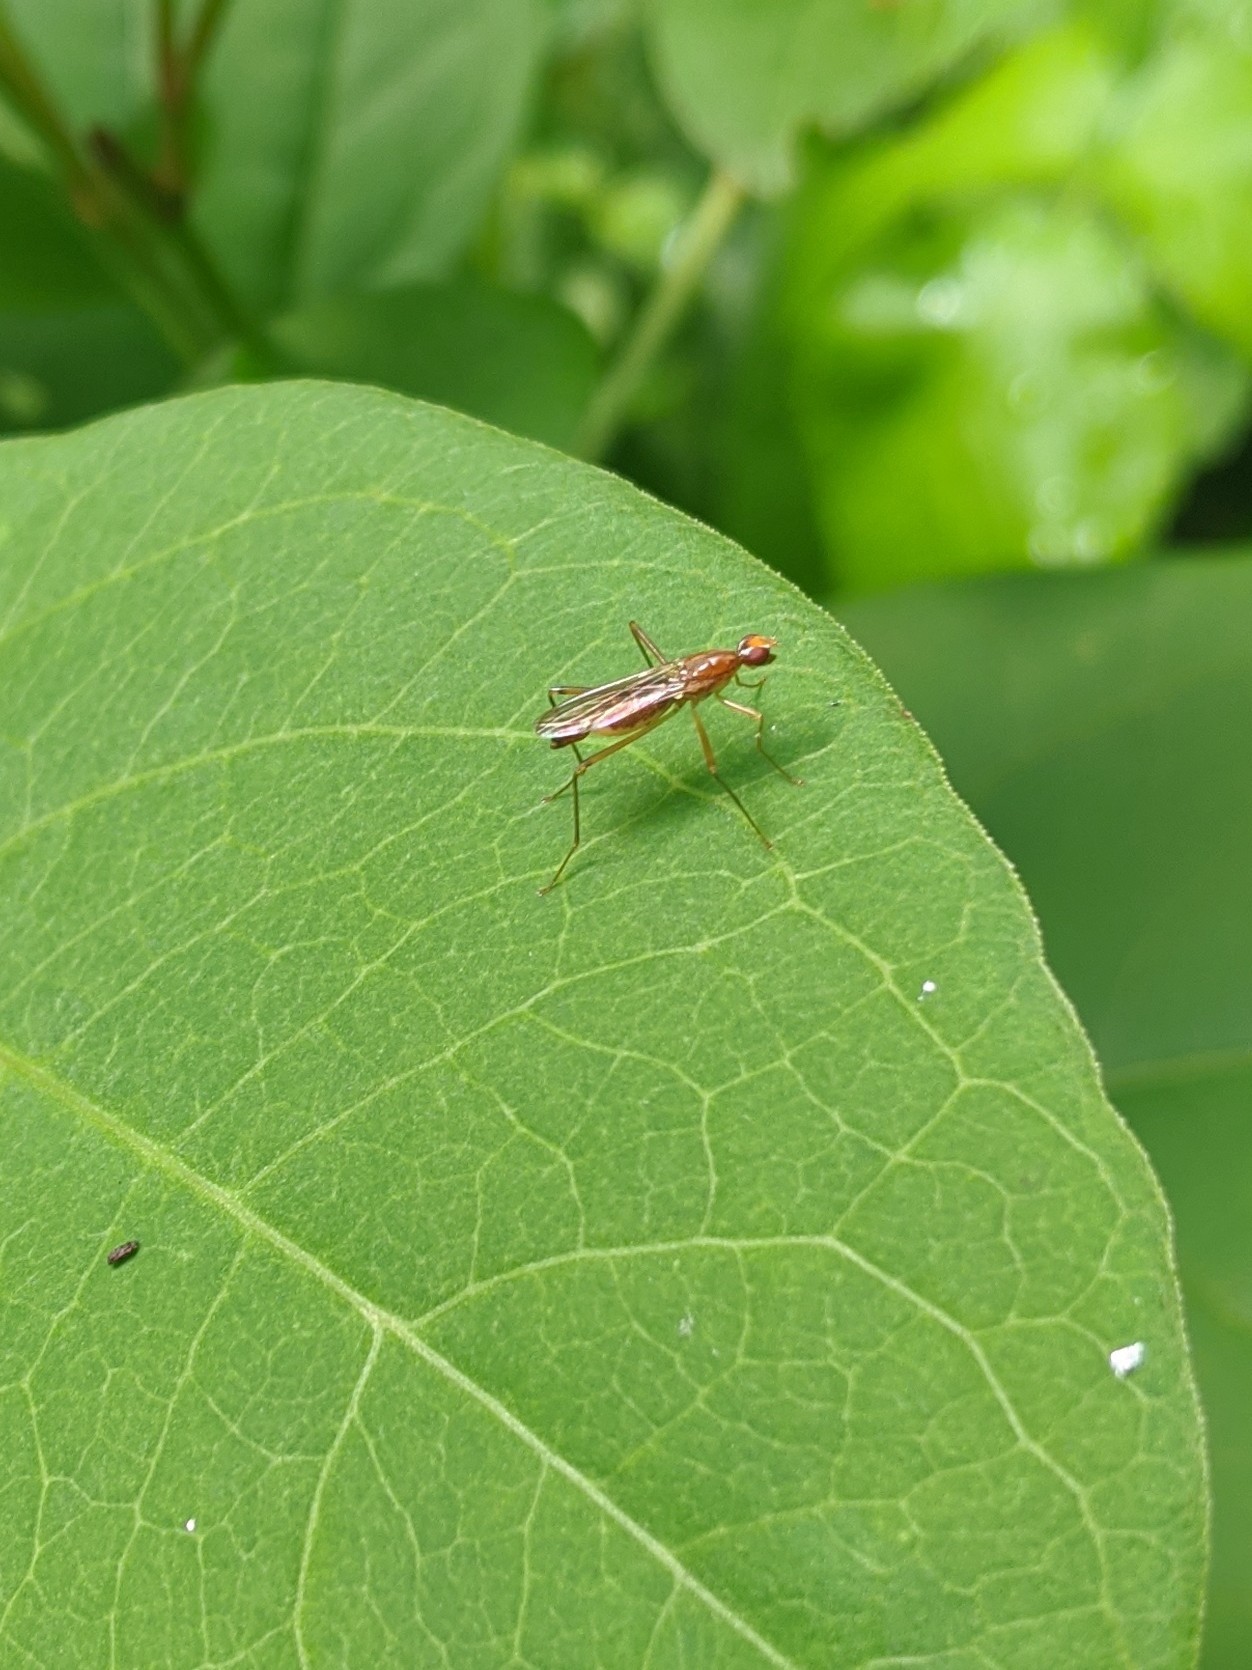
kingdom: Animalia
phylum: Arthropoda
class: Insecta
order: Diptera
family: Micropezidae
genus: Compsobata
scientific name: Compsobata univitta
